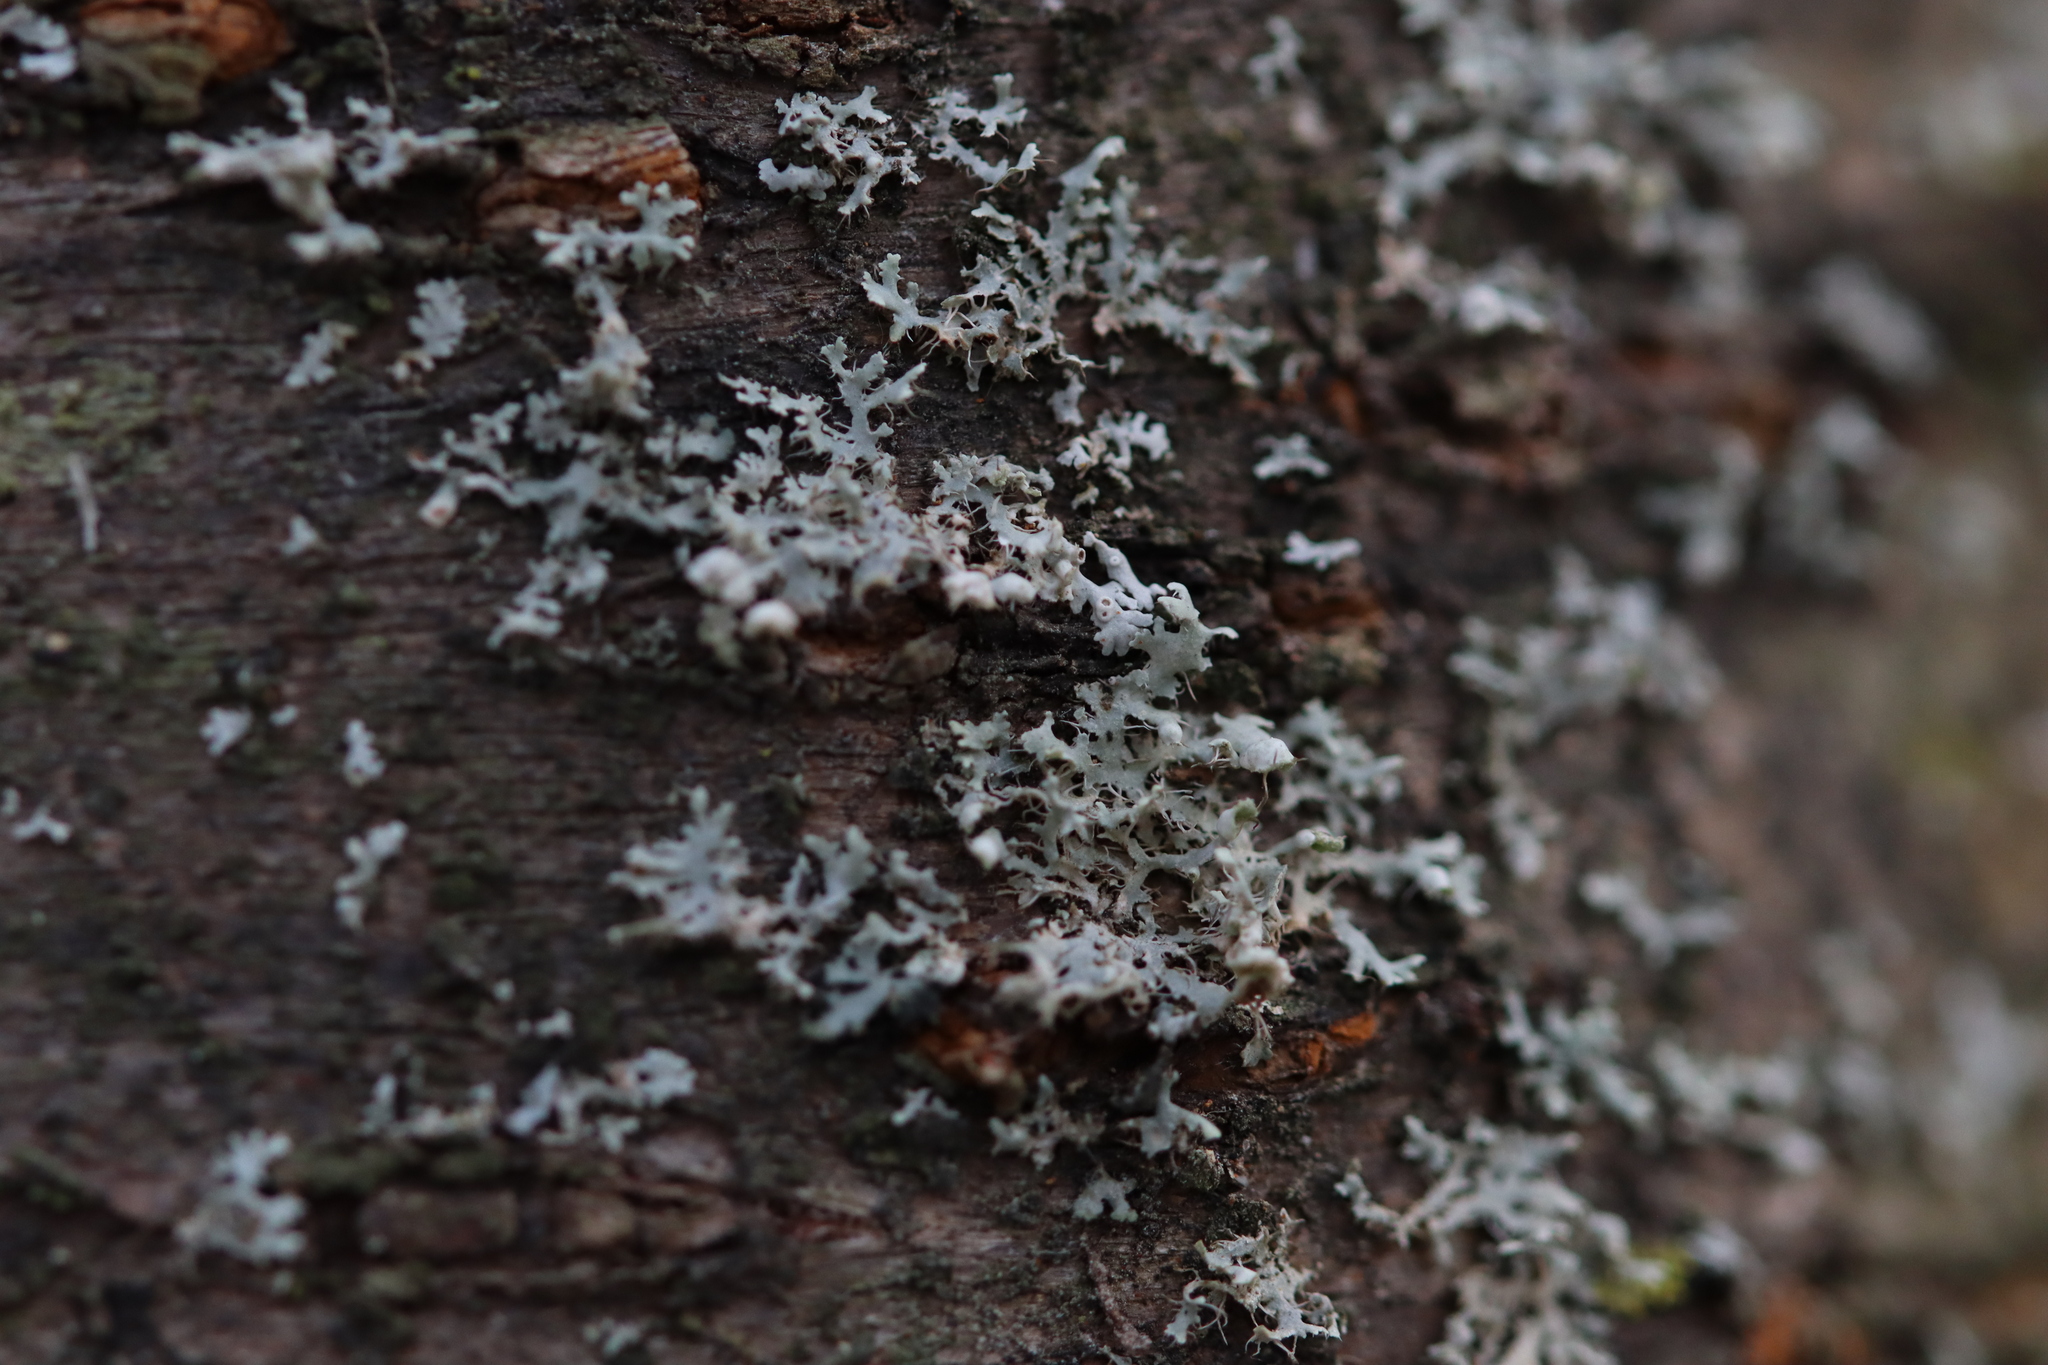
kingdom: Fungi
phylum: Ascomycota
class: Lecanoromycetes
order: Caliciales
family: Physciaceae
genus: Physcia
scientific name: Physcia adscendens
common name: Hooded rosette lichen
